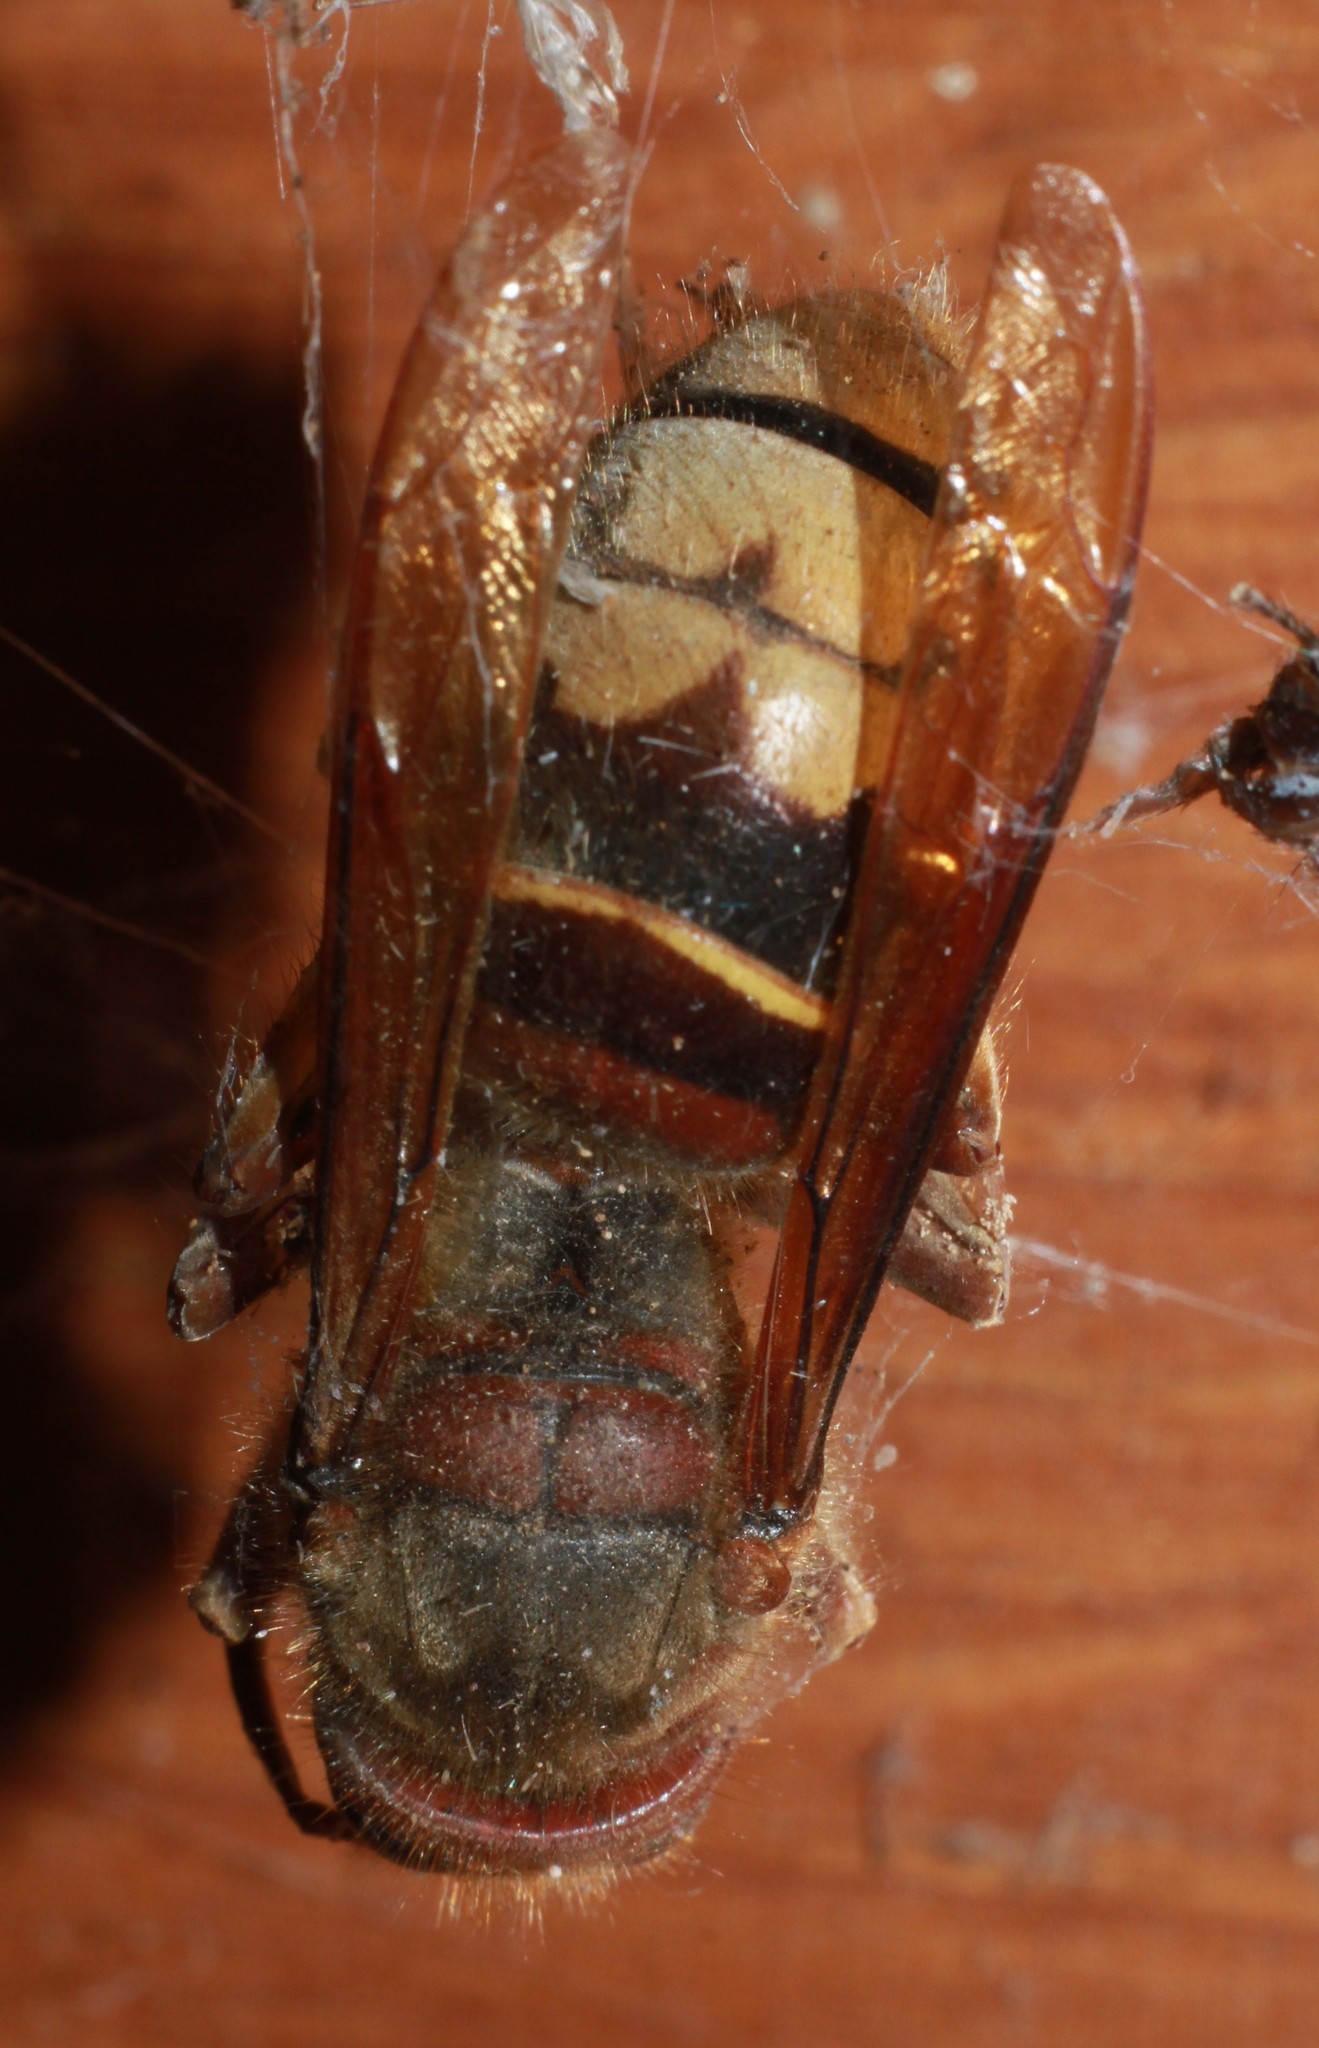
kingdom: Animalia
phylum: Arthropoda
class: Insecta
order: Hymenoptera
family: Vespidae
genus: Vespa
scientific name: Vespa crabro
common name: Hornet
